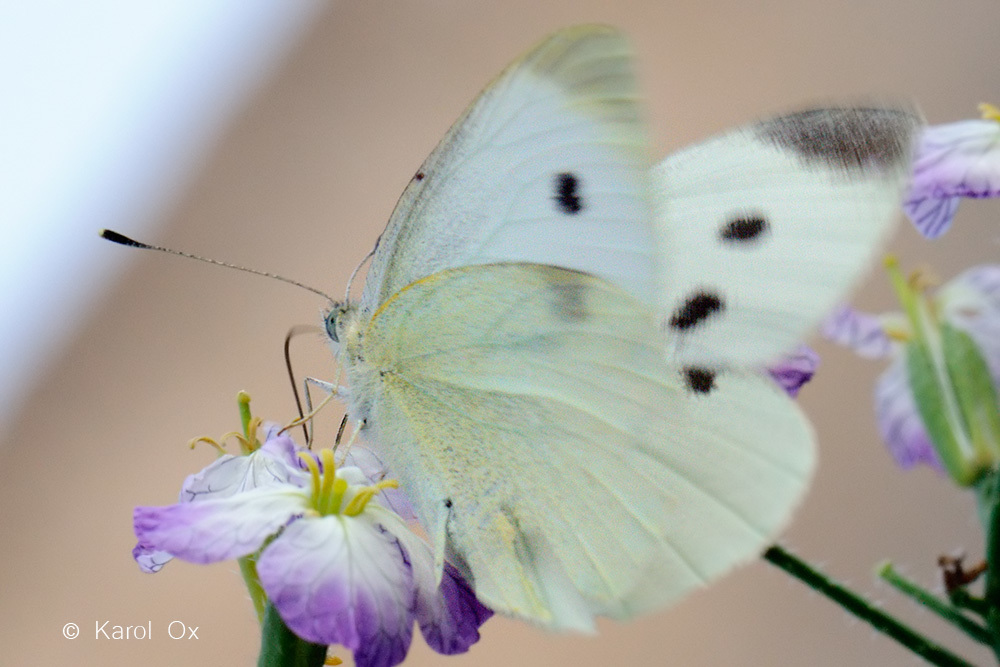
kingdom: Animalia
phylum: Arthropoda
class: Insecta
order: Lepidoptera
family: Pieridae
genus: Pieris
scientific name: Pieris rapae
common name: Small white
